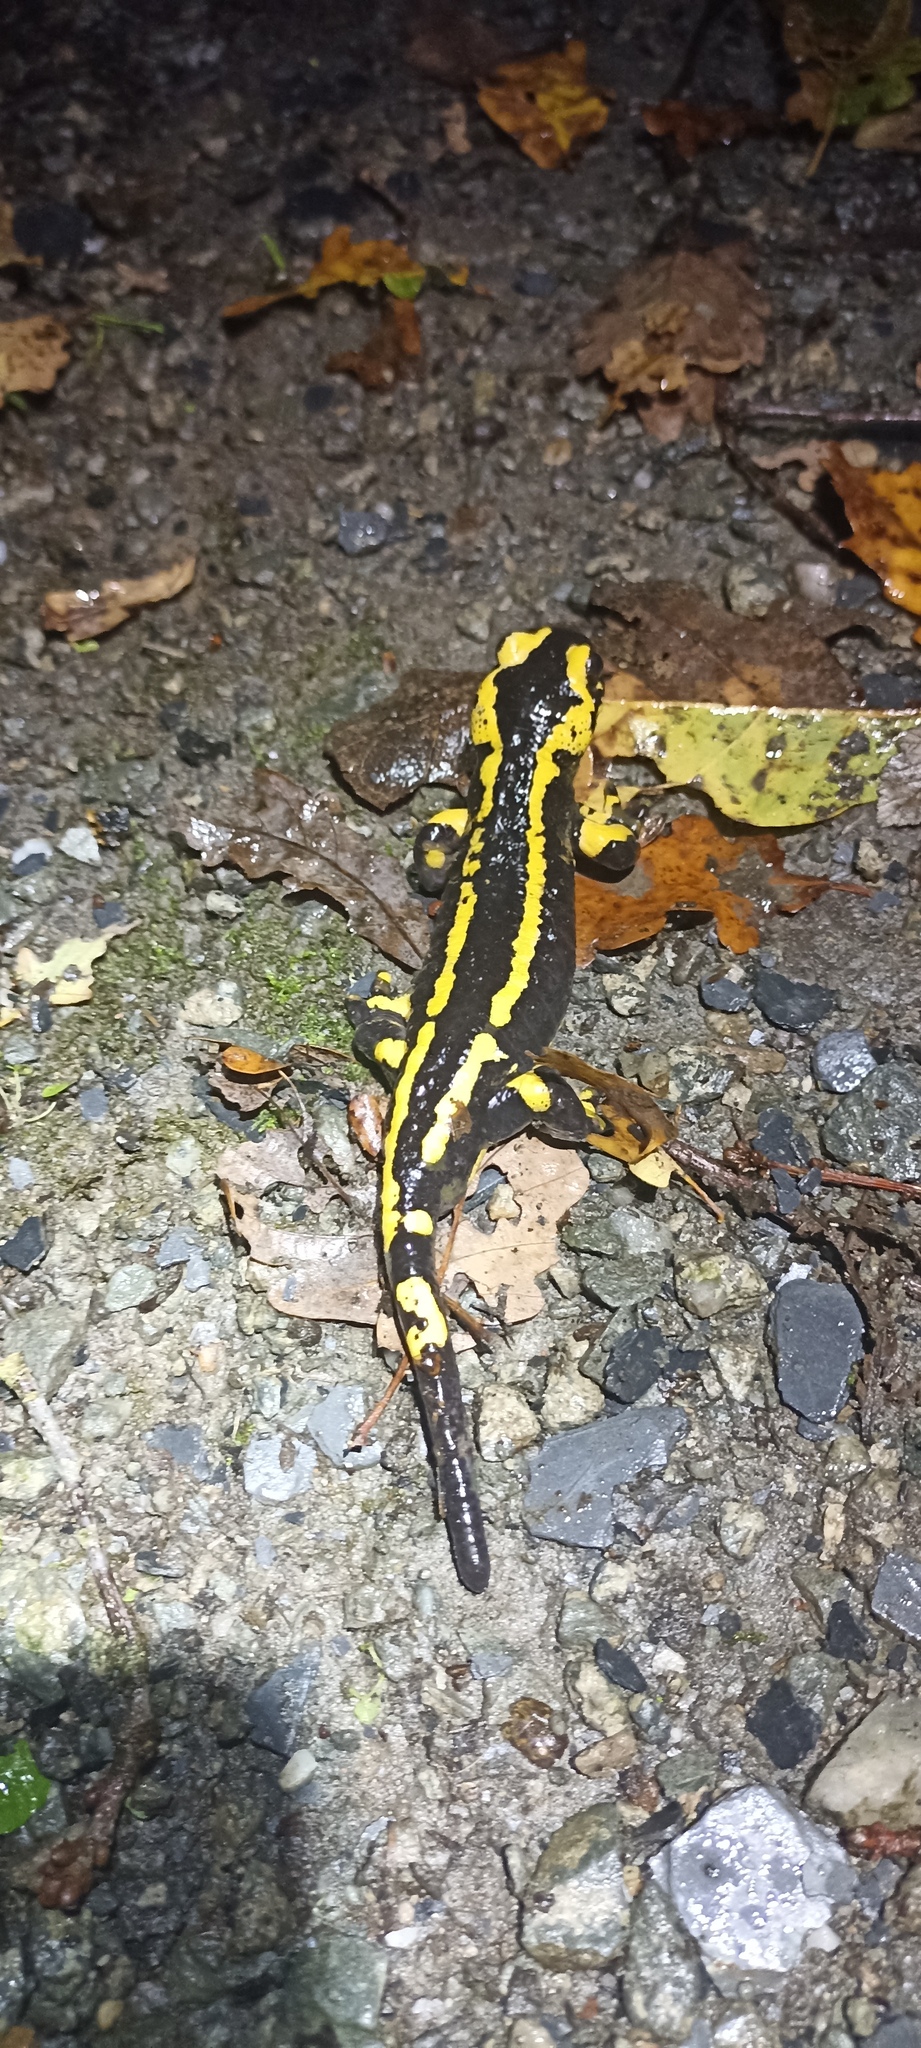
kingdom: Animalia
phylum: Chordata
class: Amphibia
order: Caudata
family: Salamandridae
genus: Salamandra
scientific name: Salamandra salamandra
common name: Fire salamander
